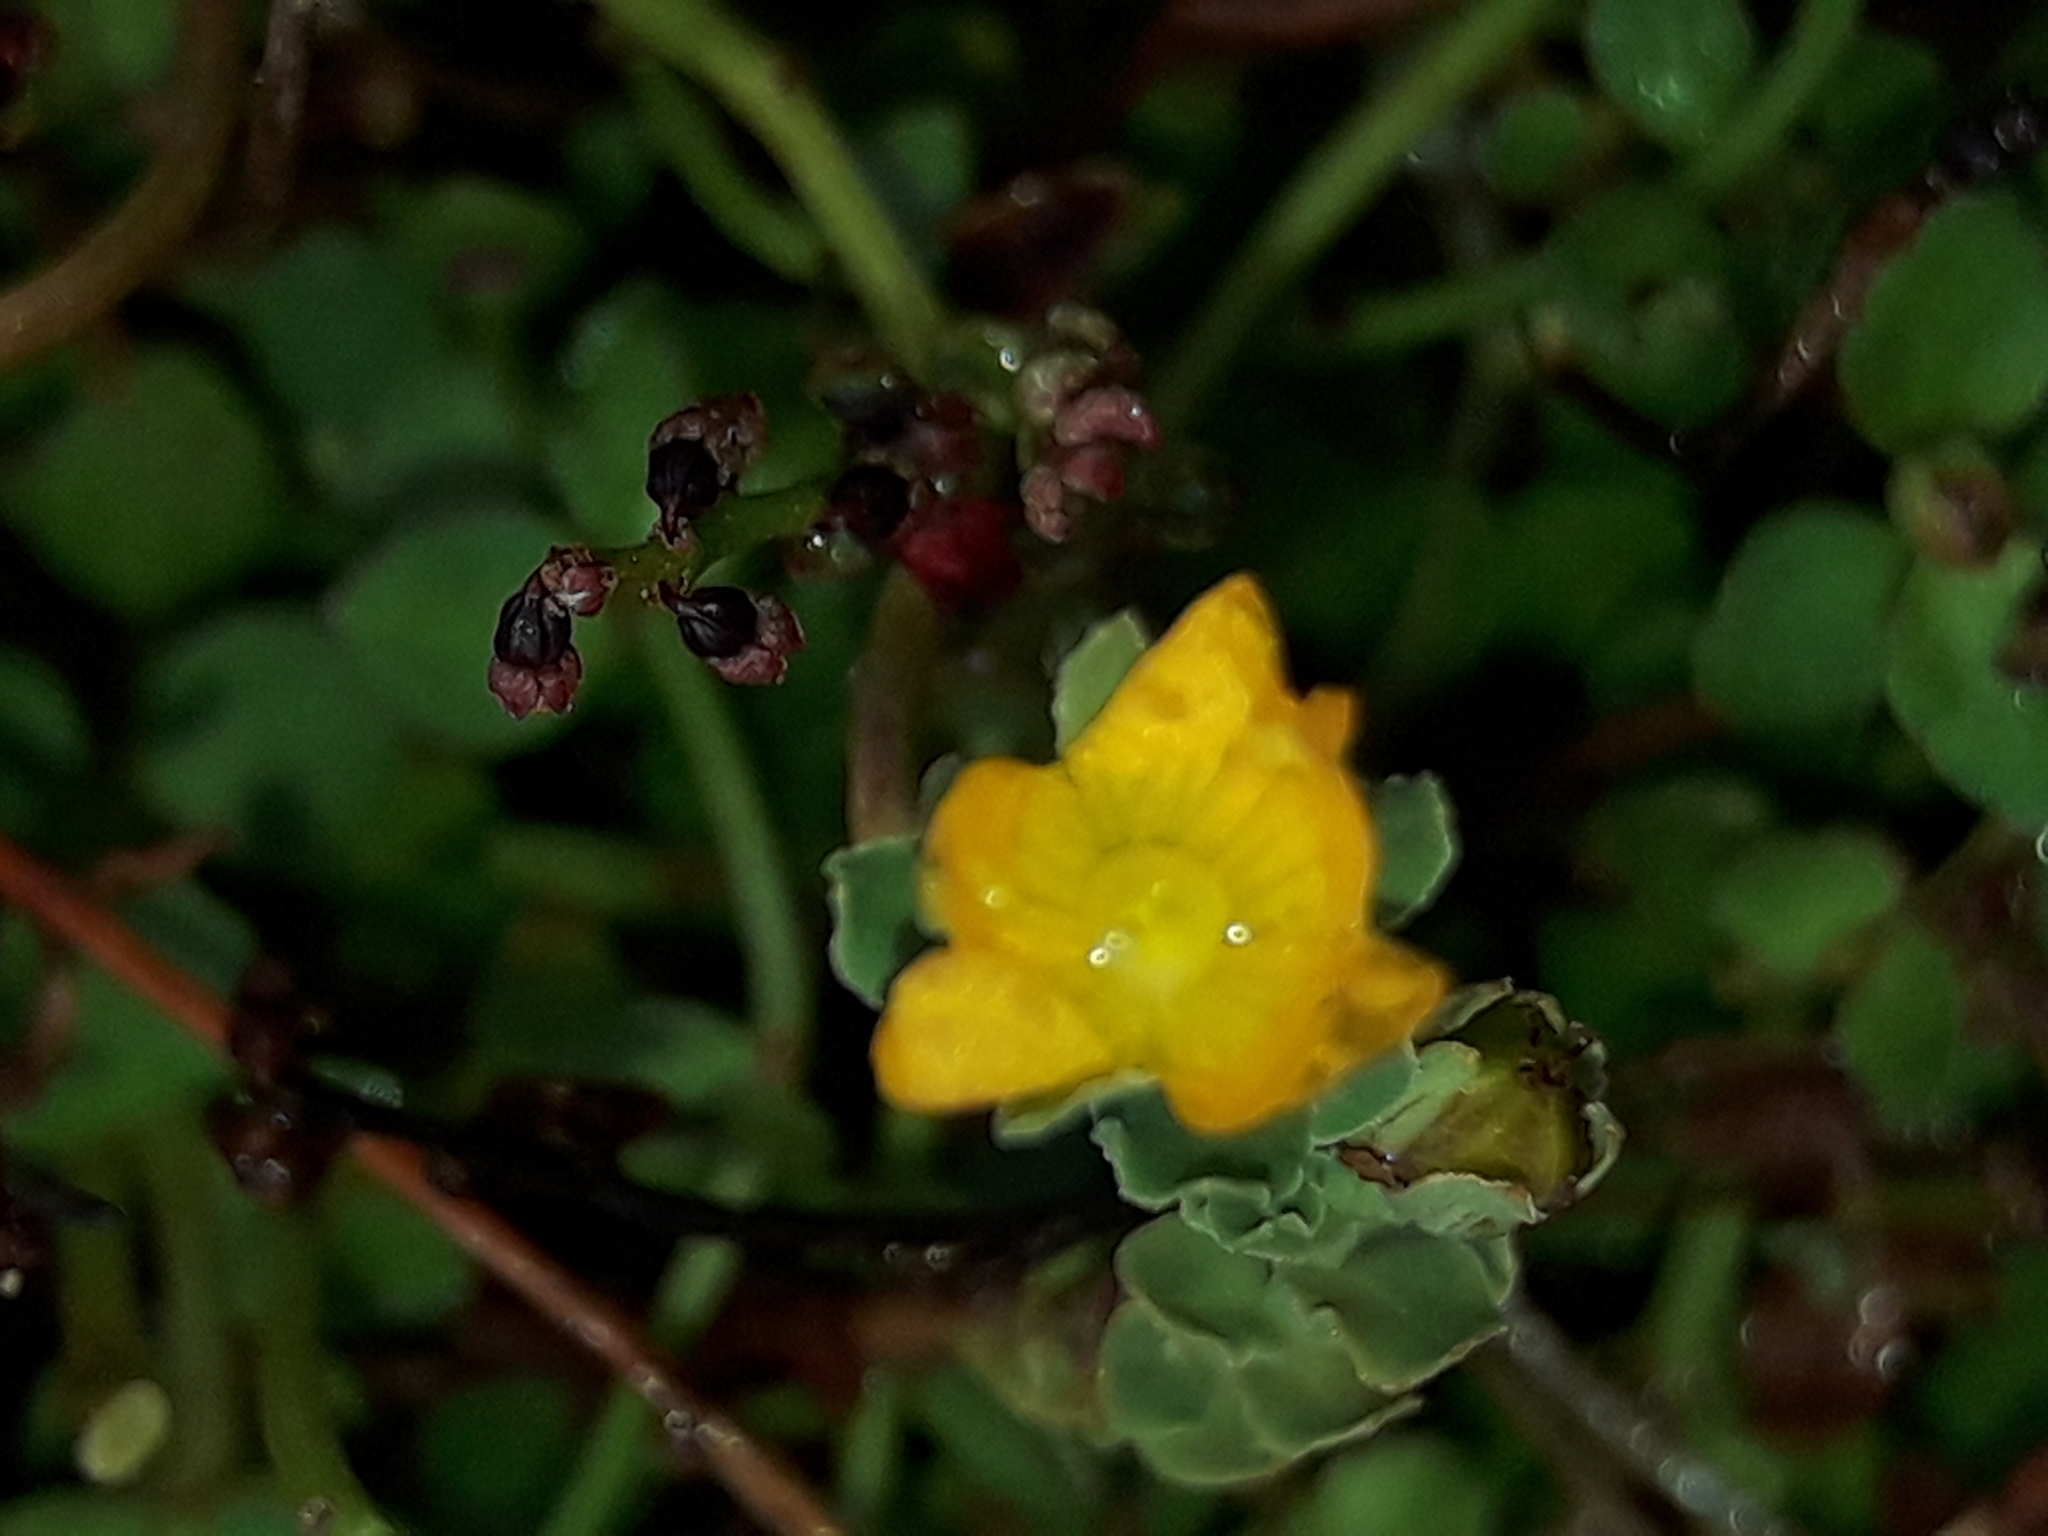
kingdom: Plantae
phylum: Tracheophyta
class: Magnoliopsida
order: Malpighiales
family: Hypericaceae
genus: Hypericum
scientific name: Hypericum japonicum
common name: Matted st. john's-wort
